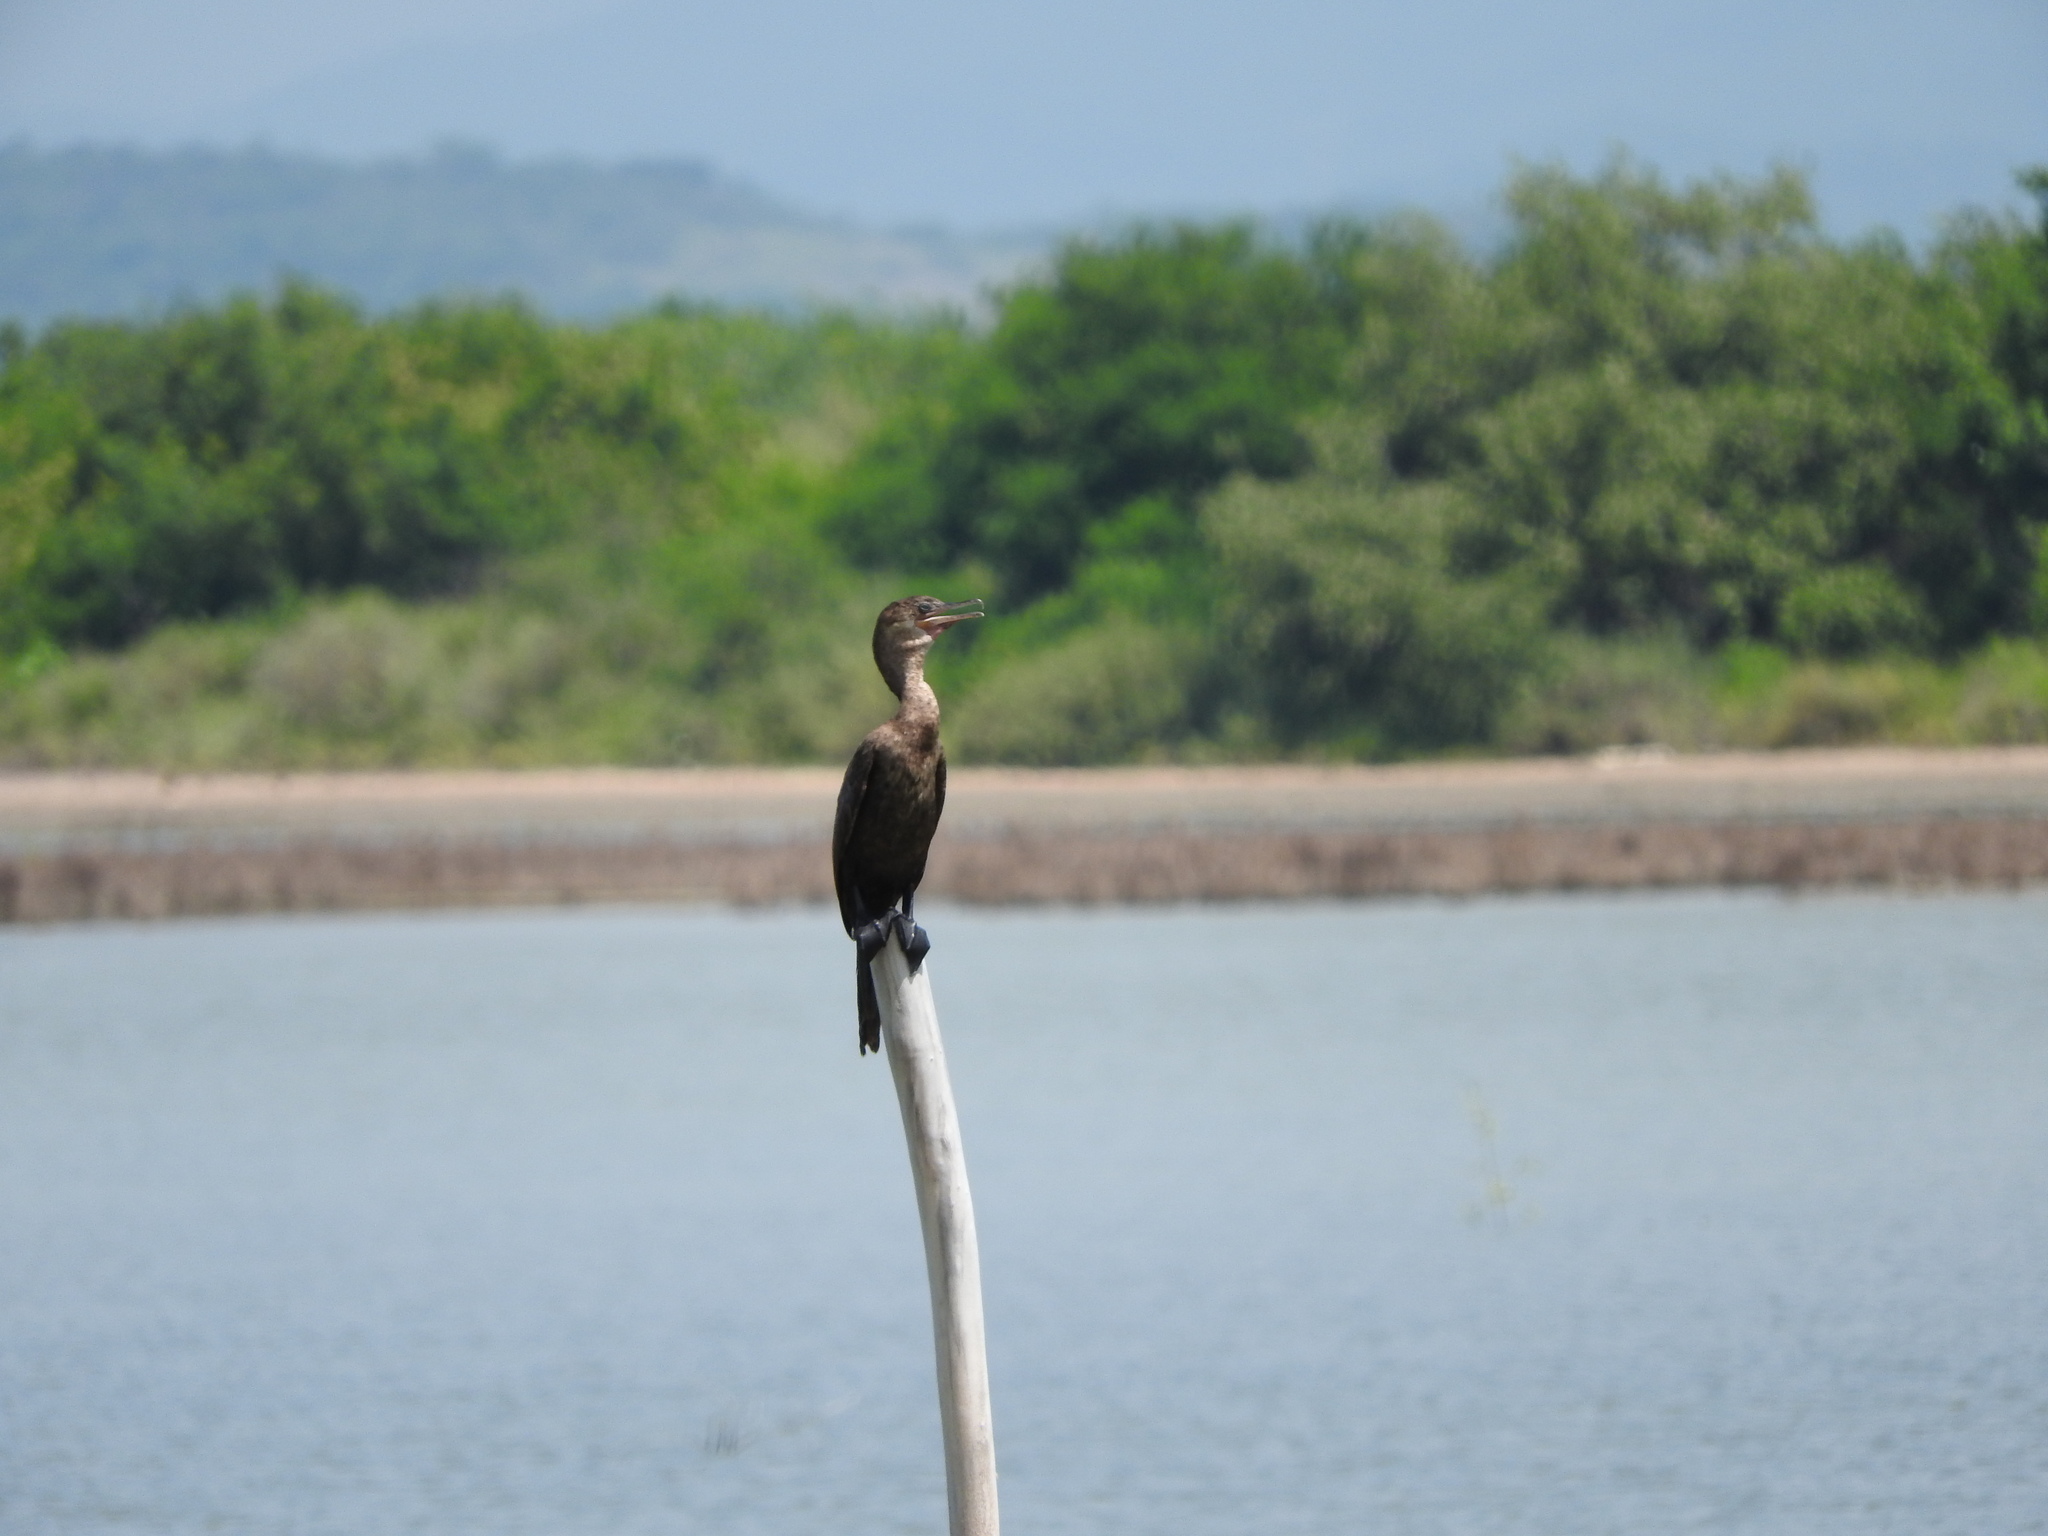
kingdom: Animalia
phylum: Chordata
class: Aves
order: Suliformes
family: Phalacrocoracidae
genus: Phalacrocorax
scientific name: Phalacrocorax brasilianus
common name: Neotropic cormorant
